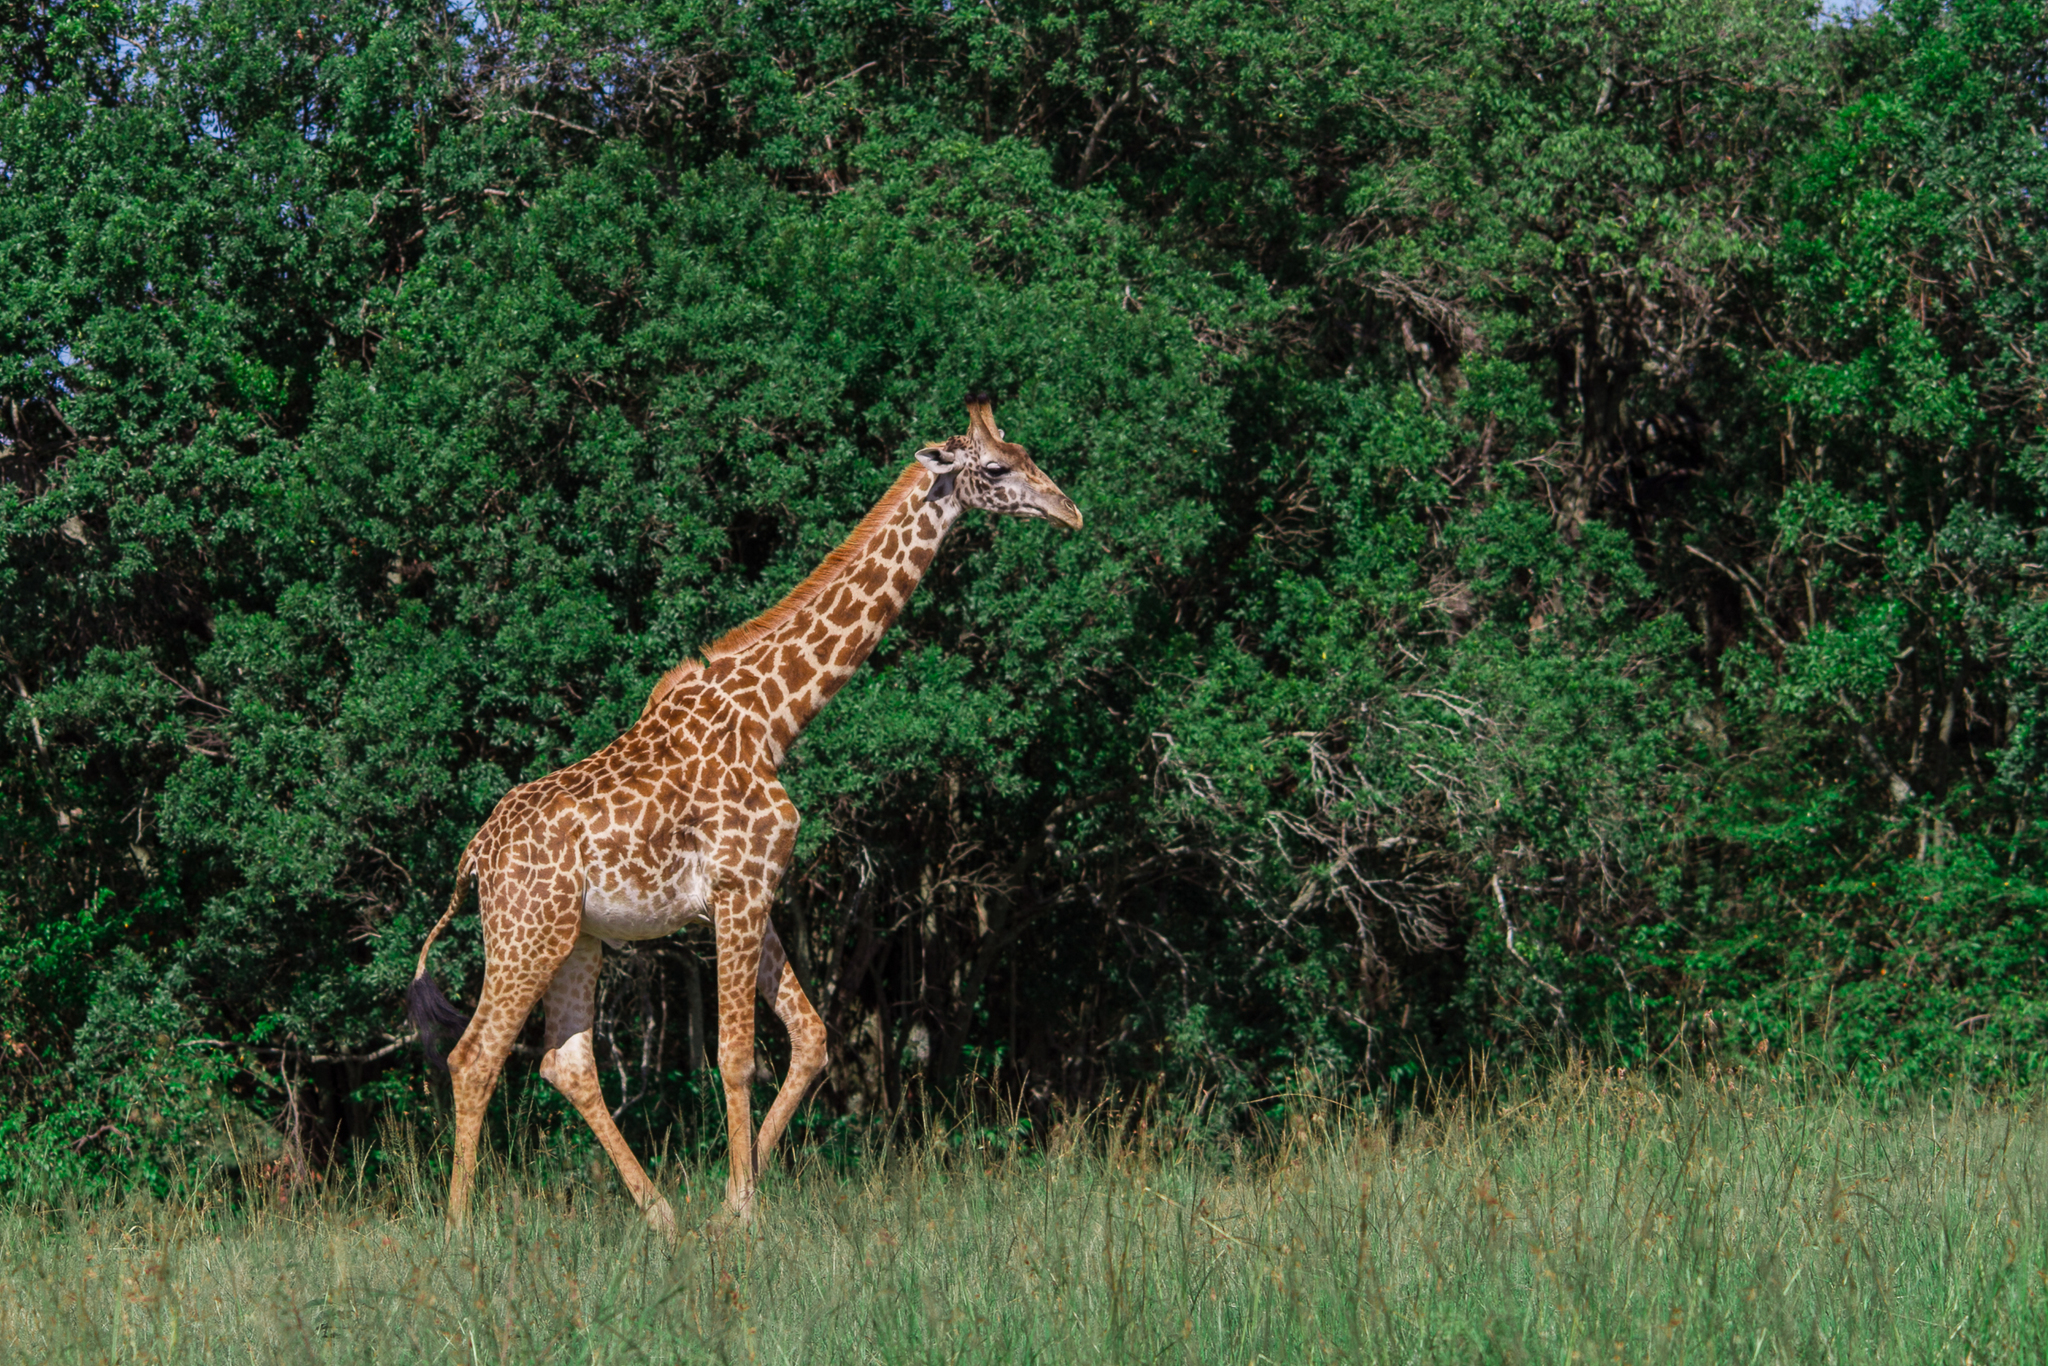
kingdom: Animalia
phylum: Chordata
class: Mammalia
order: Artiodactyla
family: Giraffidae
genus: Giraffa
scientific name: Giraffa tippelskirchi
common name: Masai giraffe
